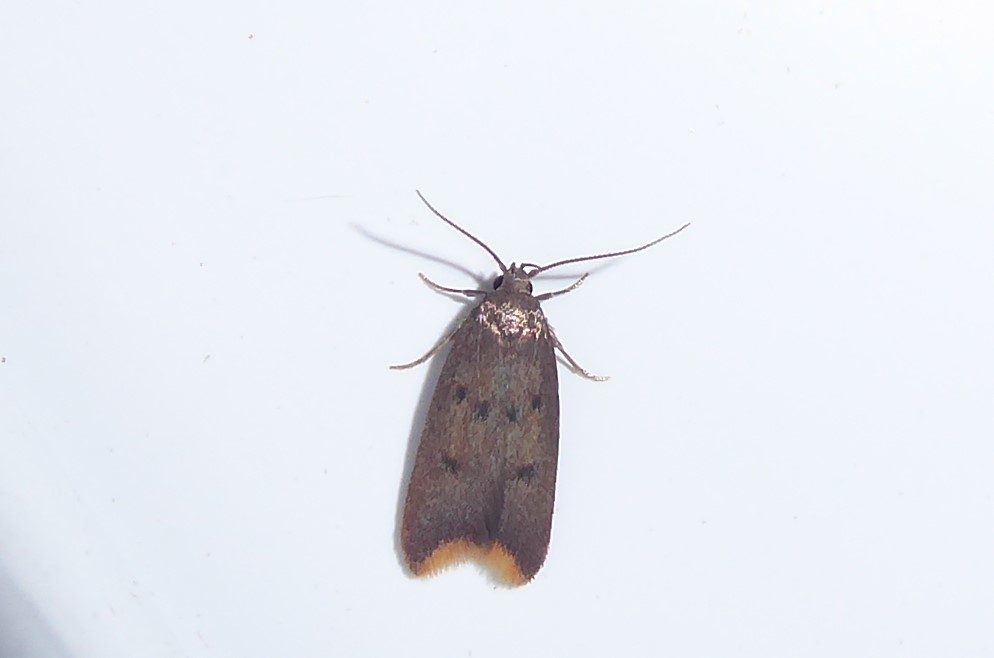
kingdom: Animalia
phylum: Arthropoda
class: Insecta
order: Lepidoptera
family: Oecophoridae
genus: Tachystola
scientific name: Tachystola acroxantha
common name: Ruddy streak
